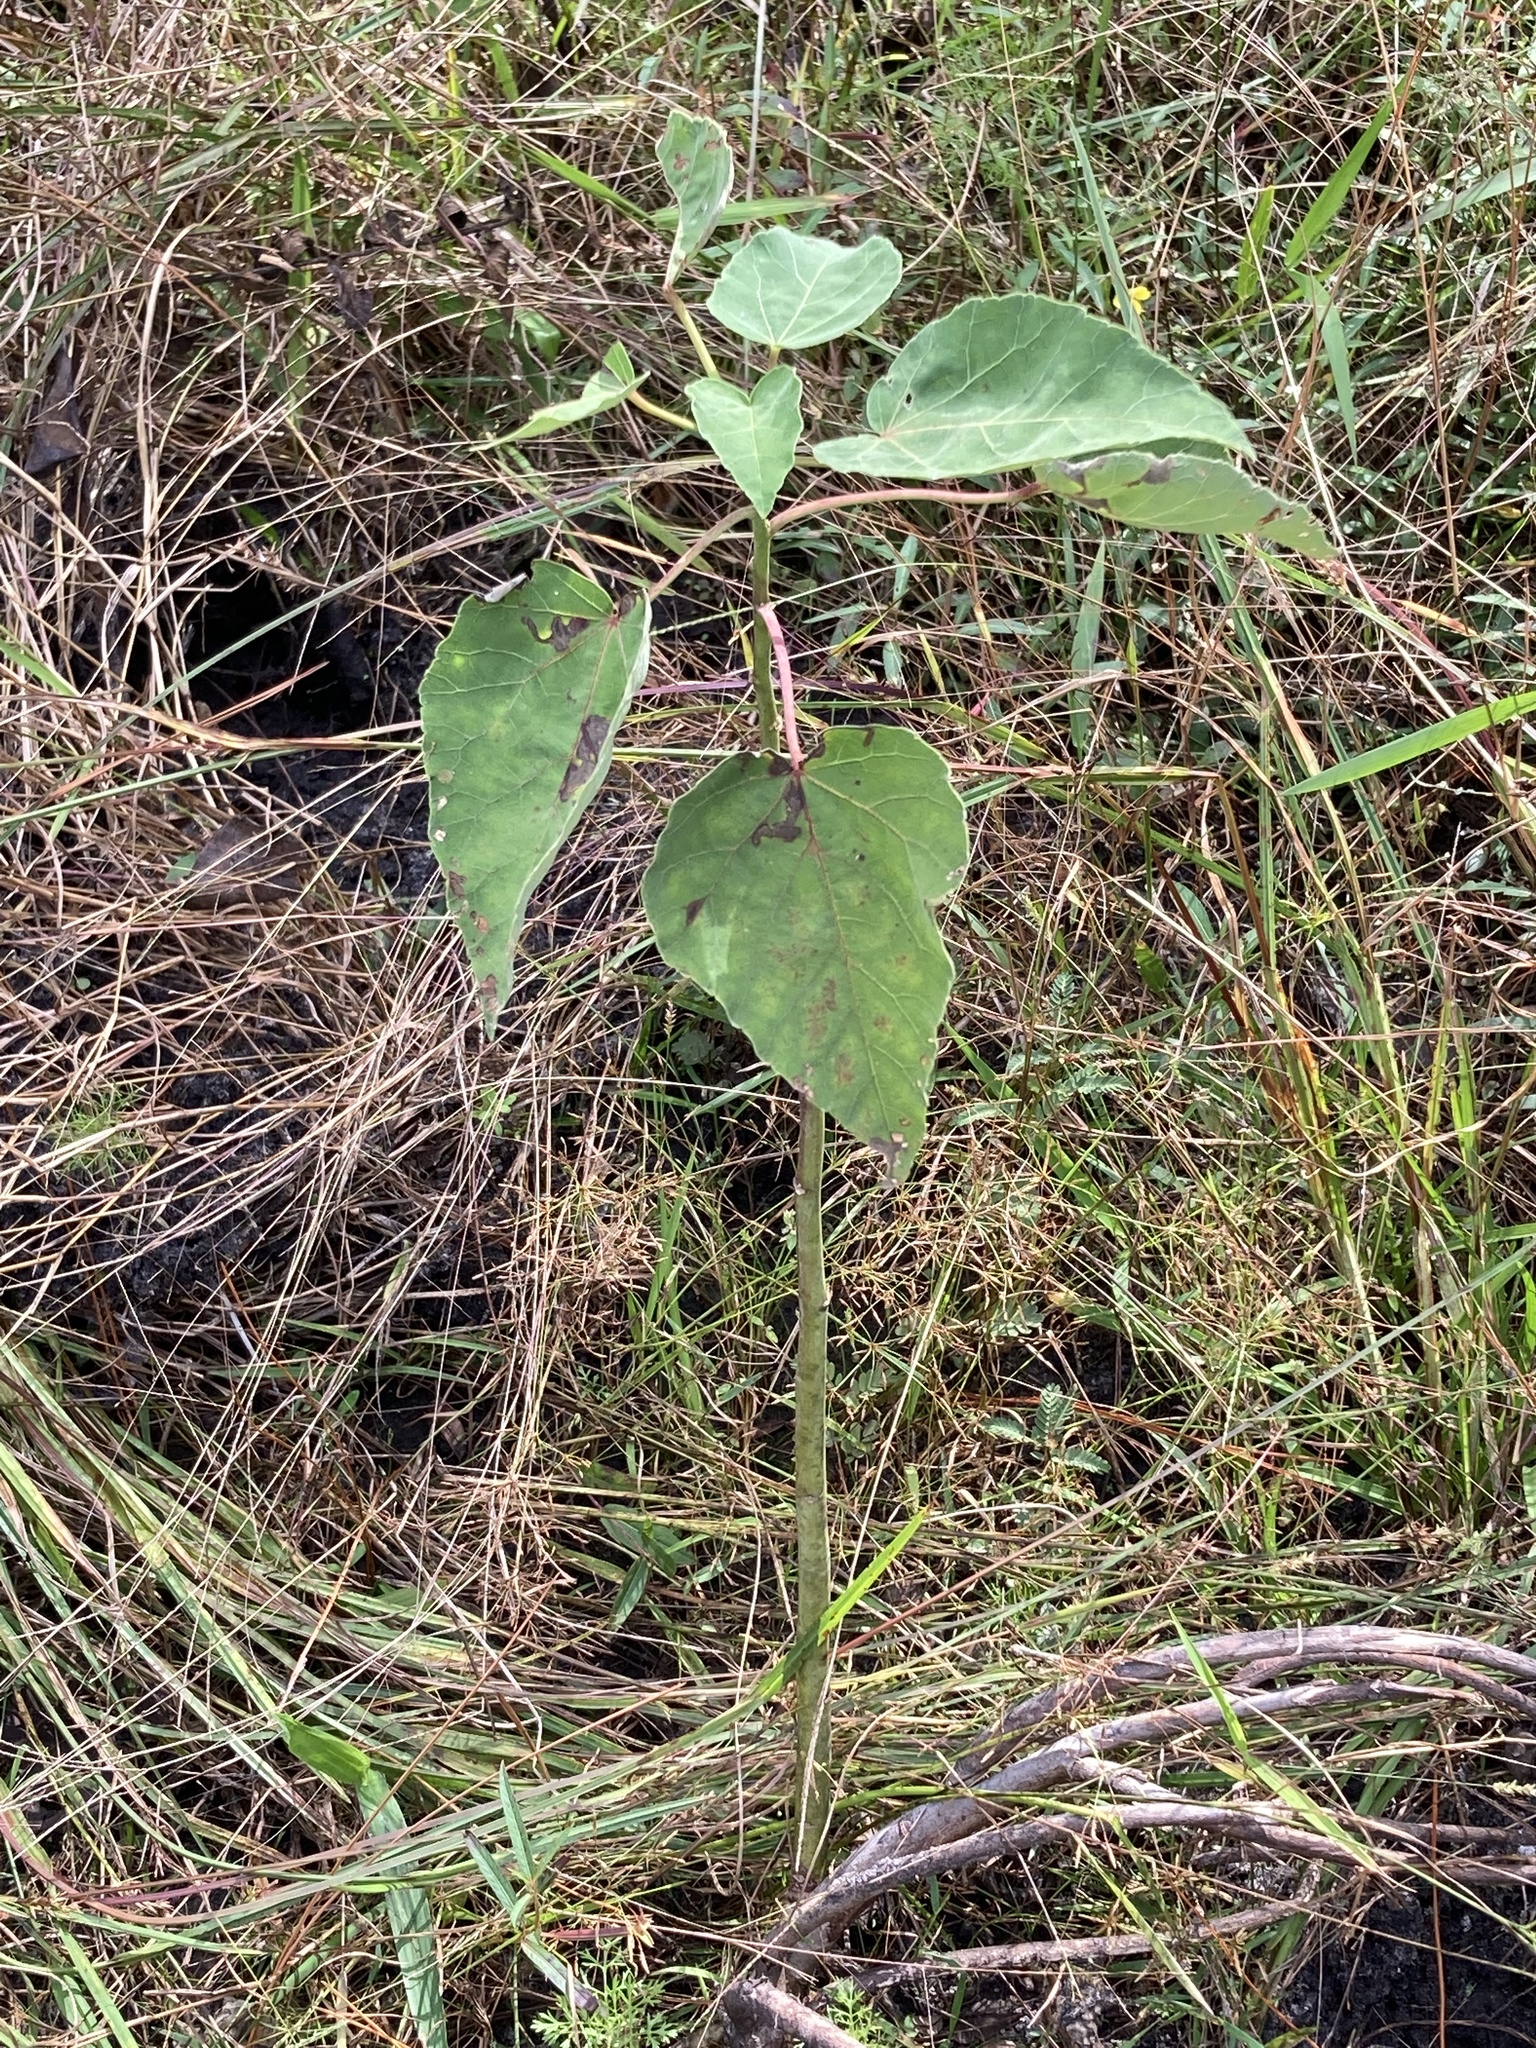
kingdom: Plantae
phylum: Tracheophyta
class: Magnoliopsida
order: Malvales
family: Malvaceae
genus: Hibiscus
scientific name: Hibiscus grandiflorus
